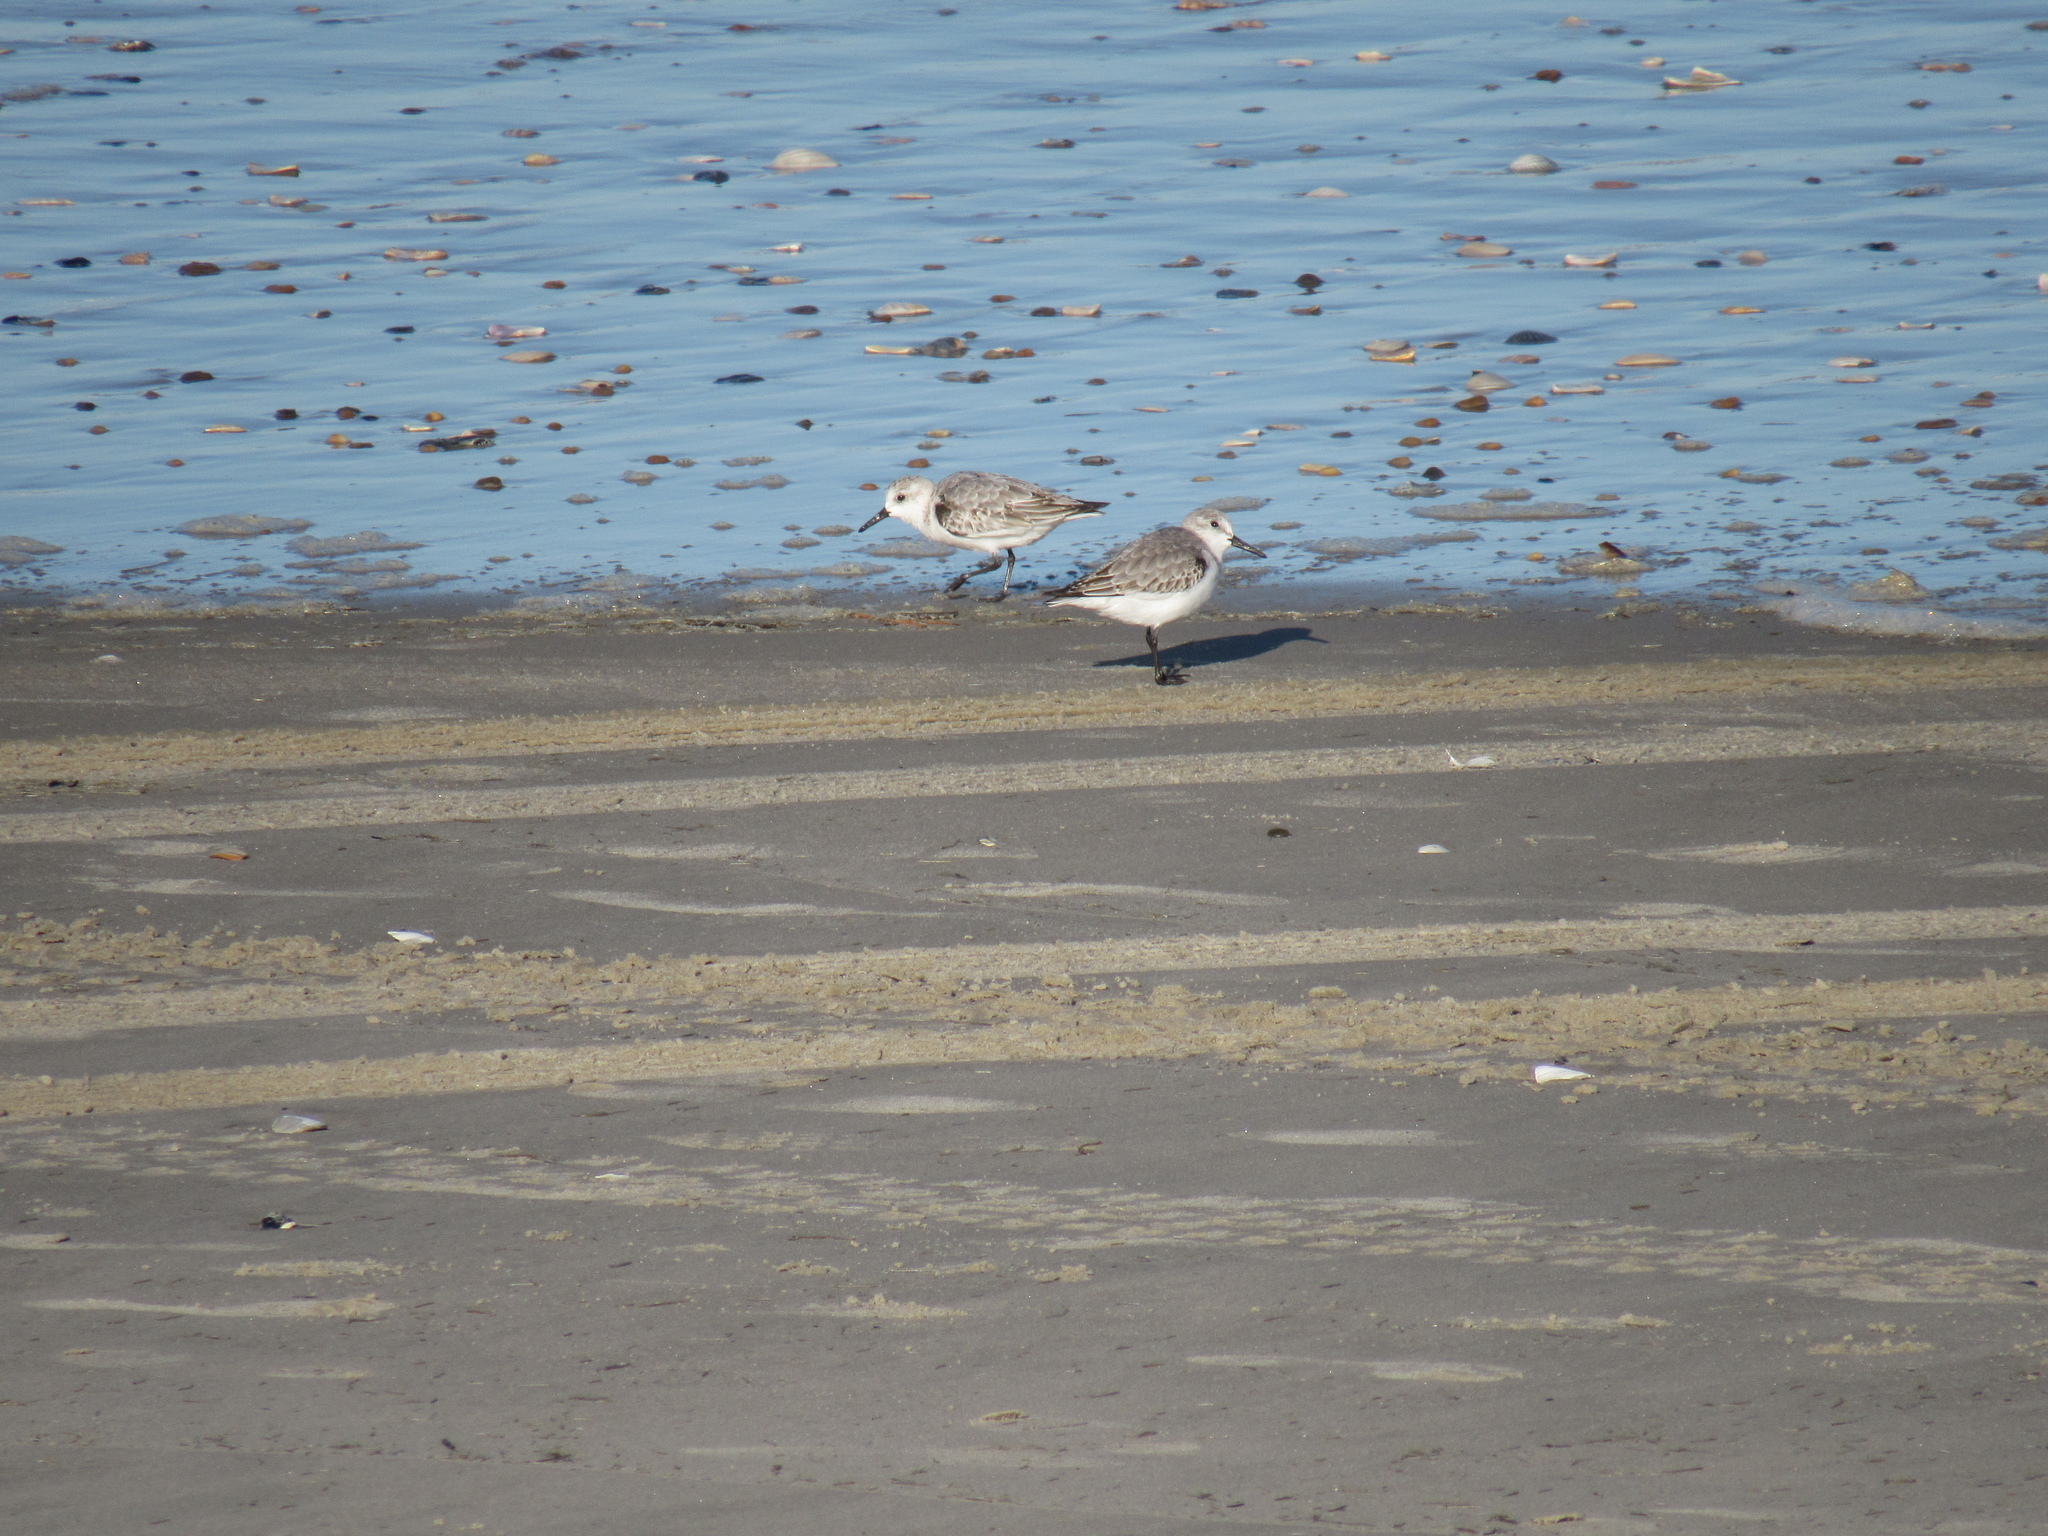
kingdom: Animalia
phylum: Chordata
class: Aves
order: Charadriiformes
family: Scolopacidae
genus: Calidris
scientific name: Calidris alba
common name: Sanderling
